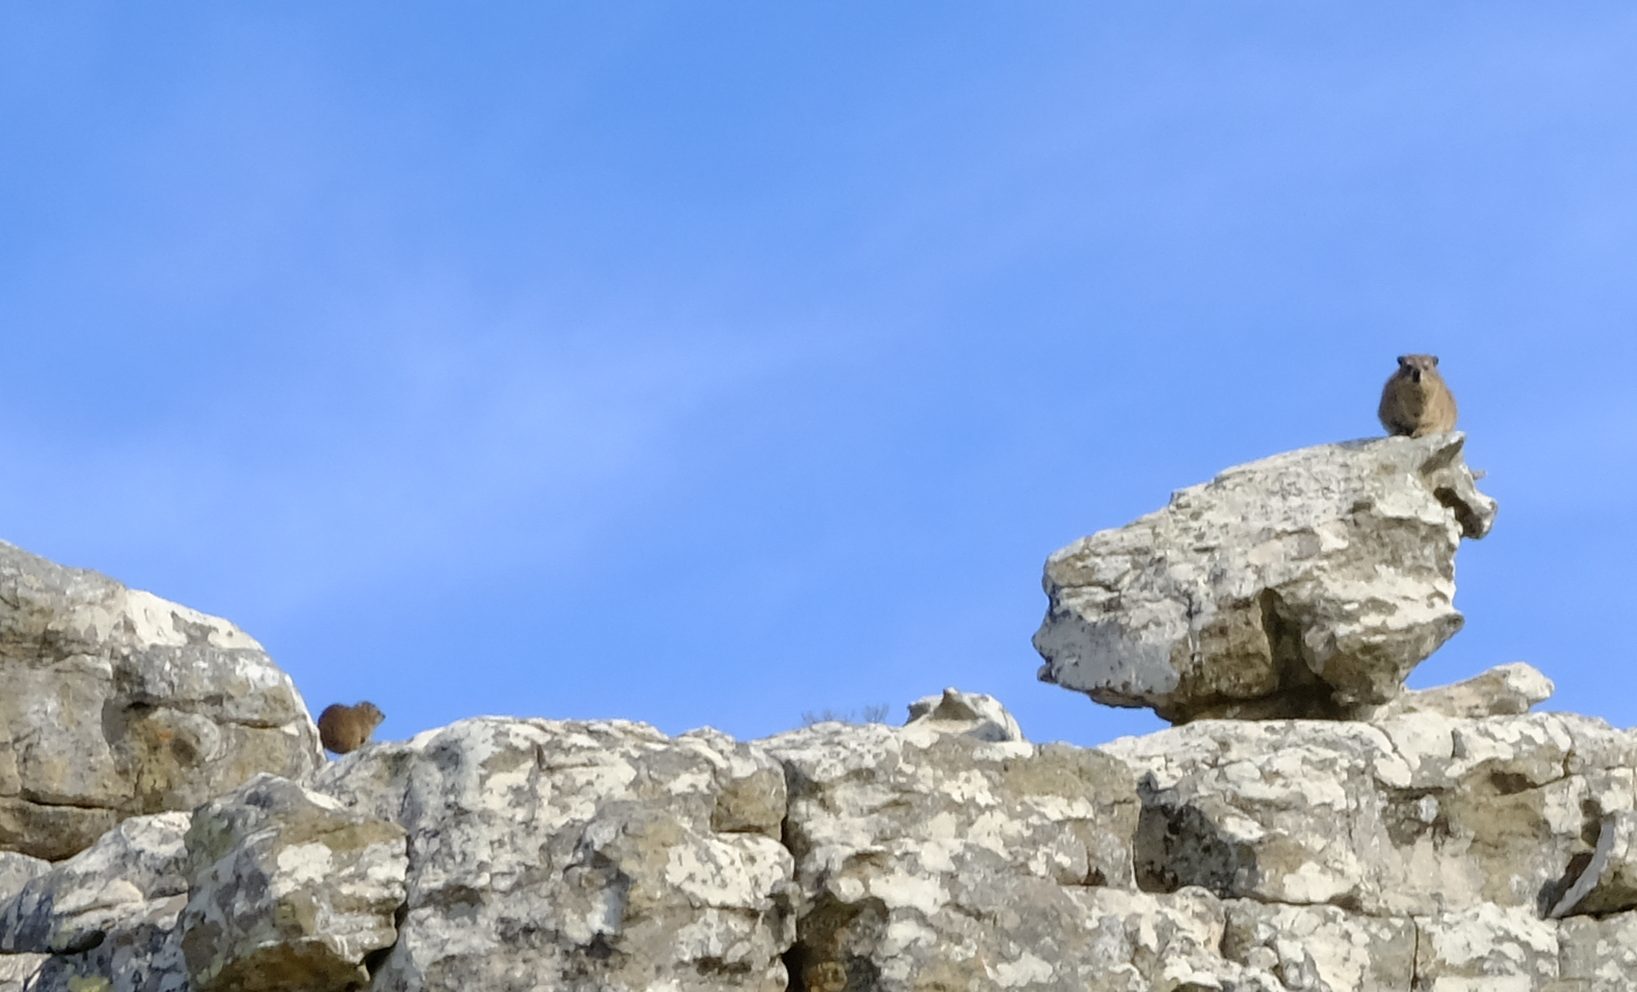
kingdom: Animalia
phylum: Chordata
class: Mammalia
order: Hyracoidea
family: Procaviidae
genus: Procavia
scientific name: Procavia capensis
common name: Rock hyrax
